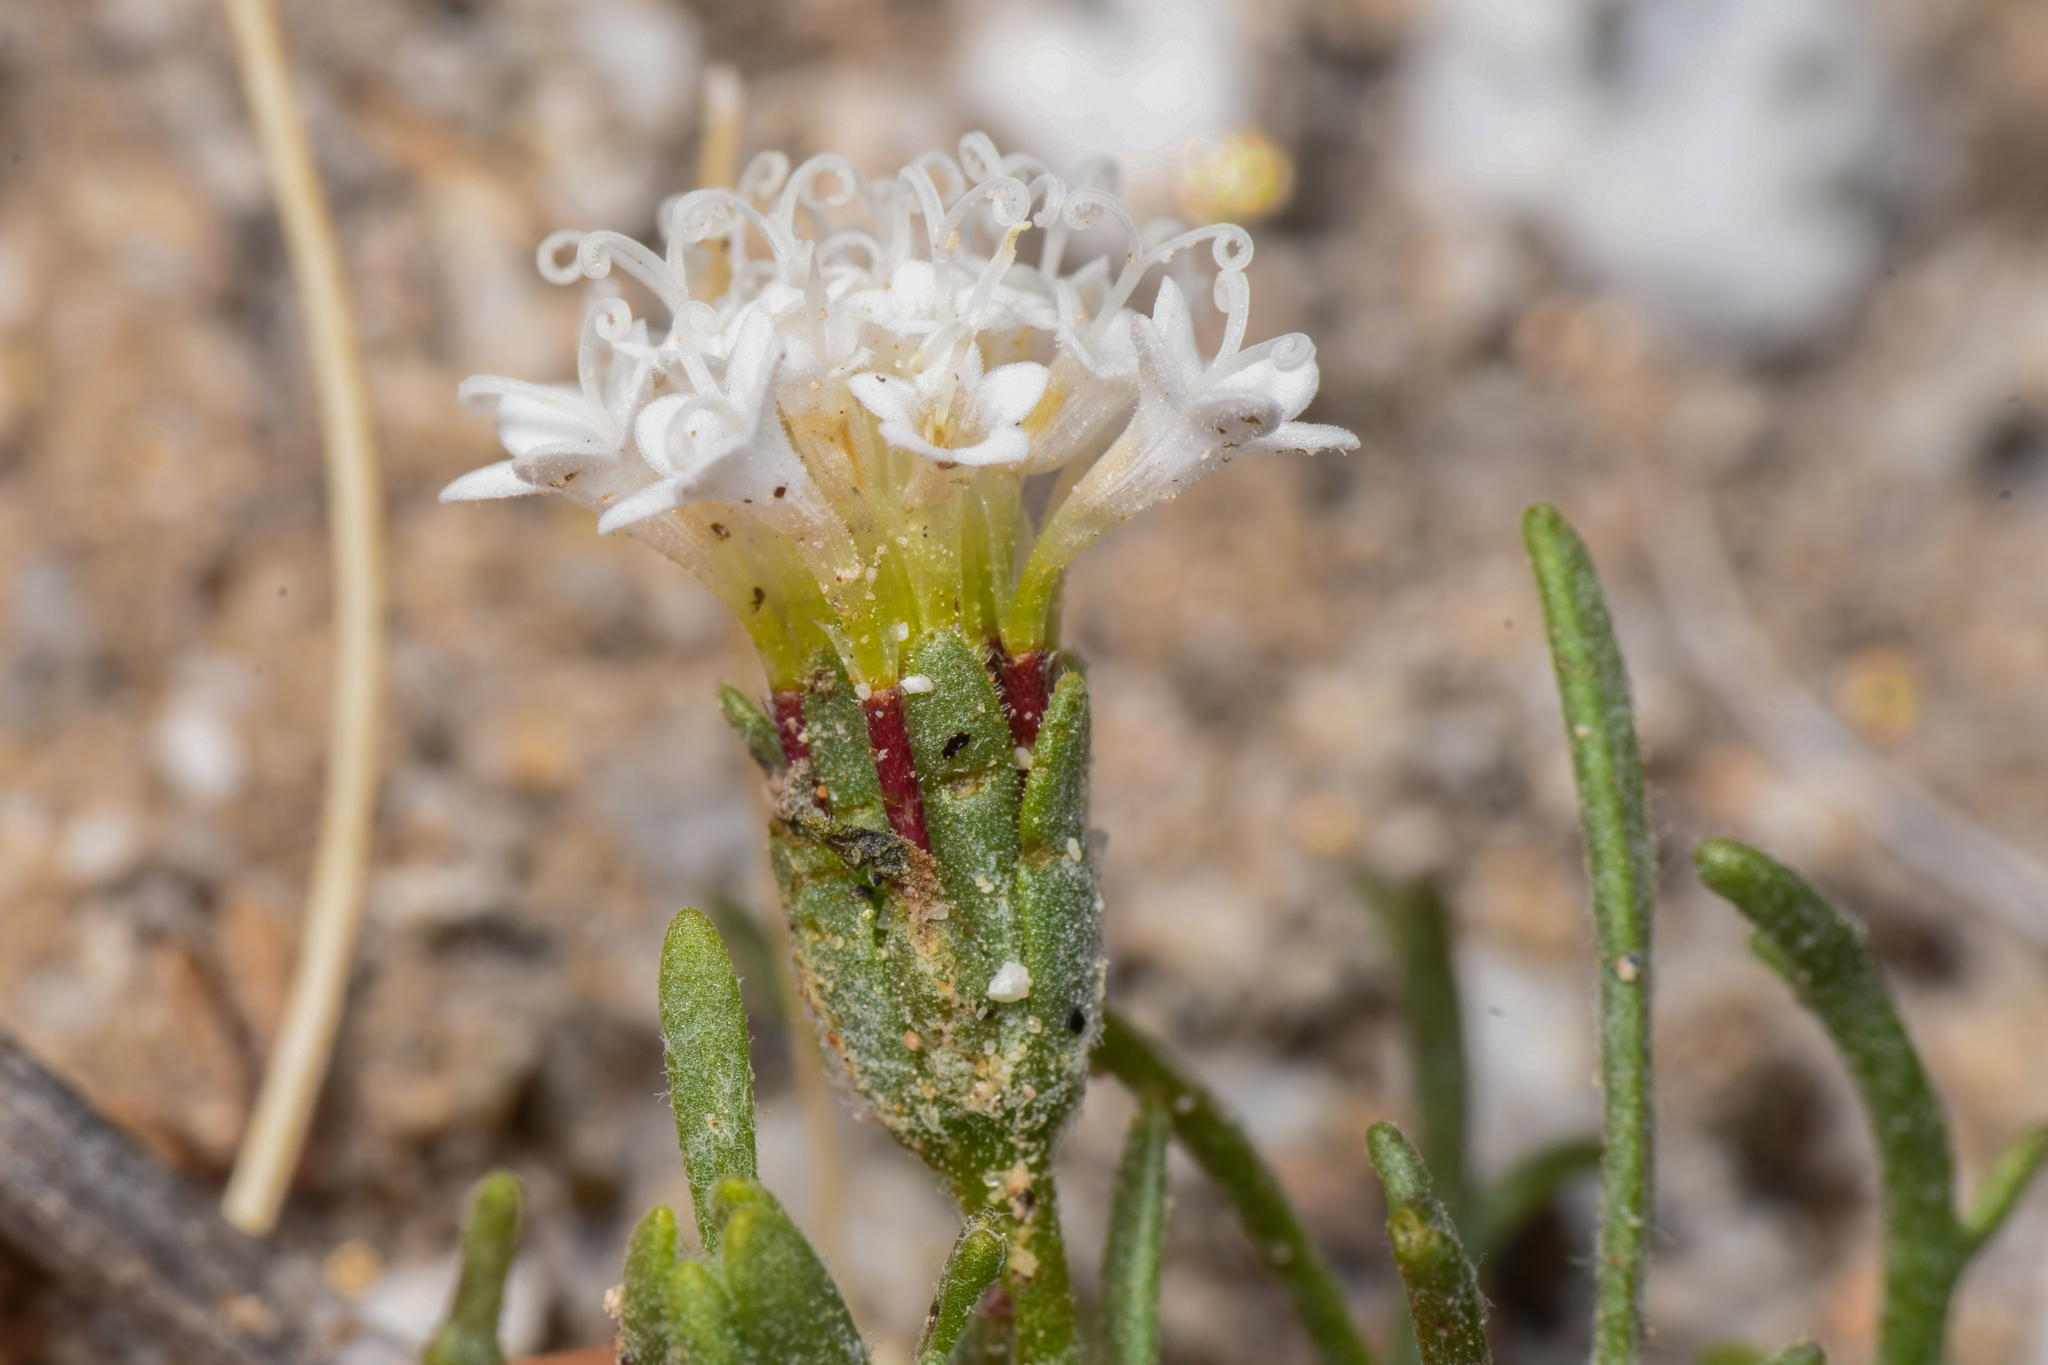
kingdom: Plantae
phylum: Tracheophyta
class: Magnoliopsida
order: Asterales
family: Asteraceae
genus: Chaenactis
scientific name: Chaenactis stevioides
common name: Desert pincushion
